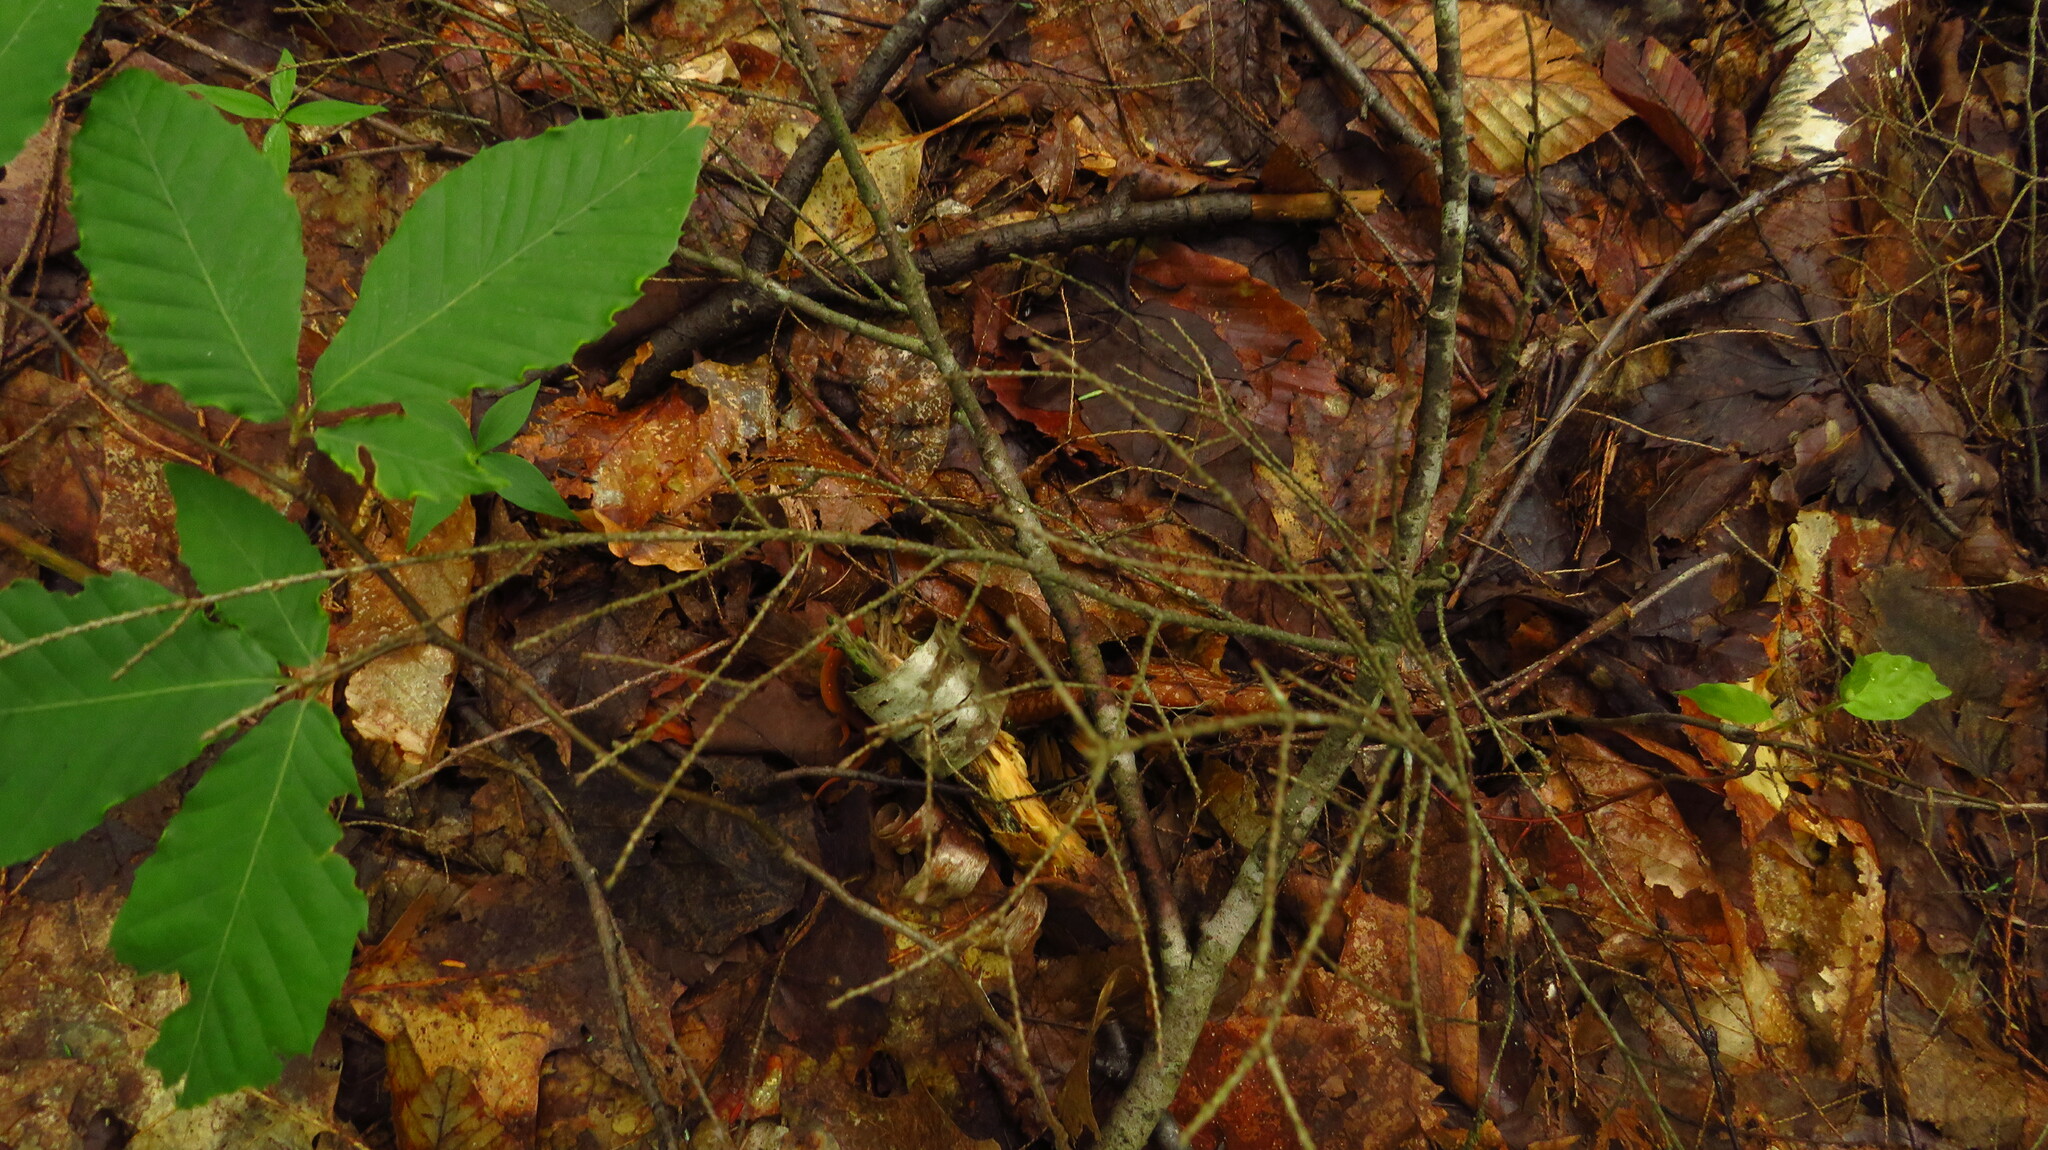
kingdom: Animalia
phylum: Chordata
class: Amphibia
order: Caudata
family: Salamandridae
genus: Notophthalmus
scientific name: Notophthalmus viridescens
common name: Eastern newt
